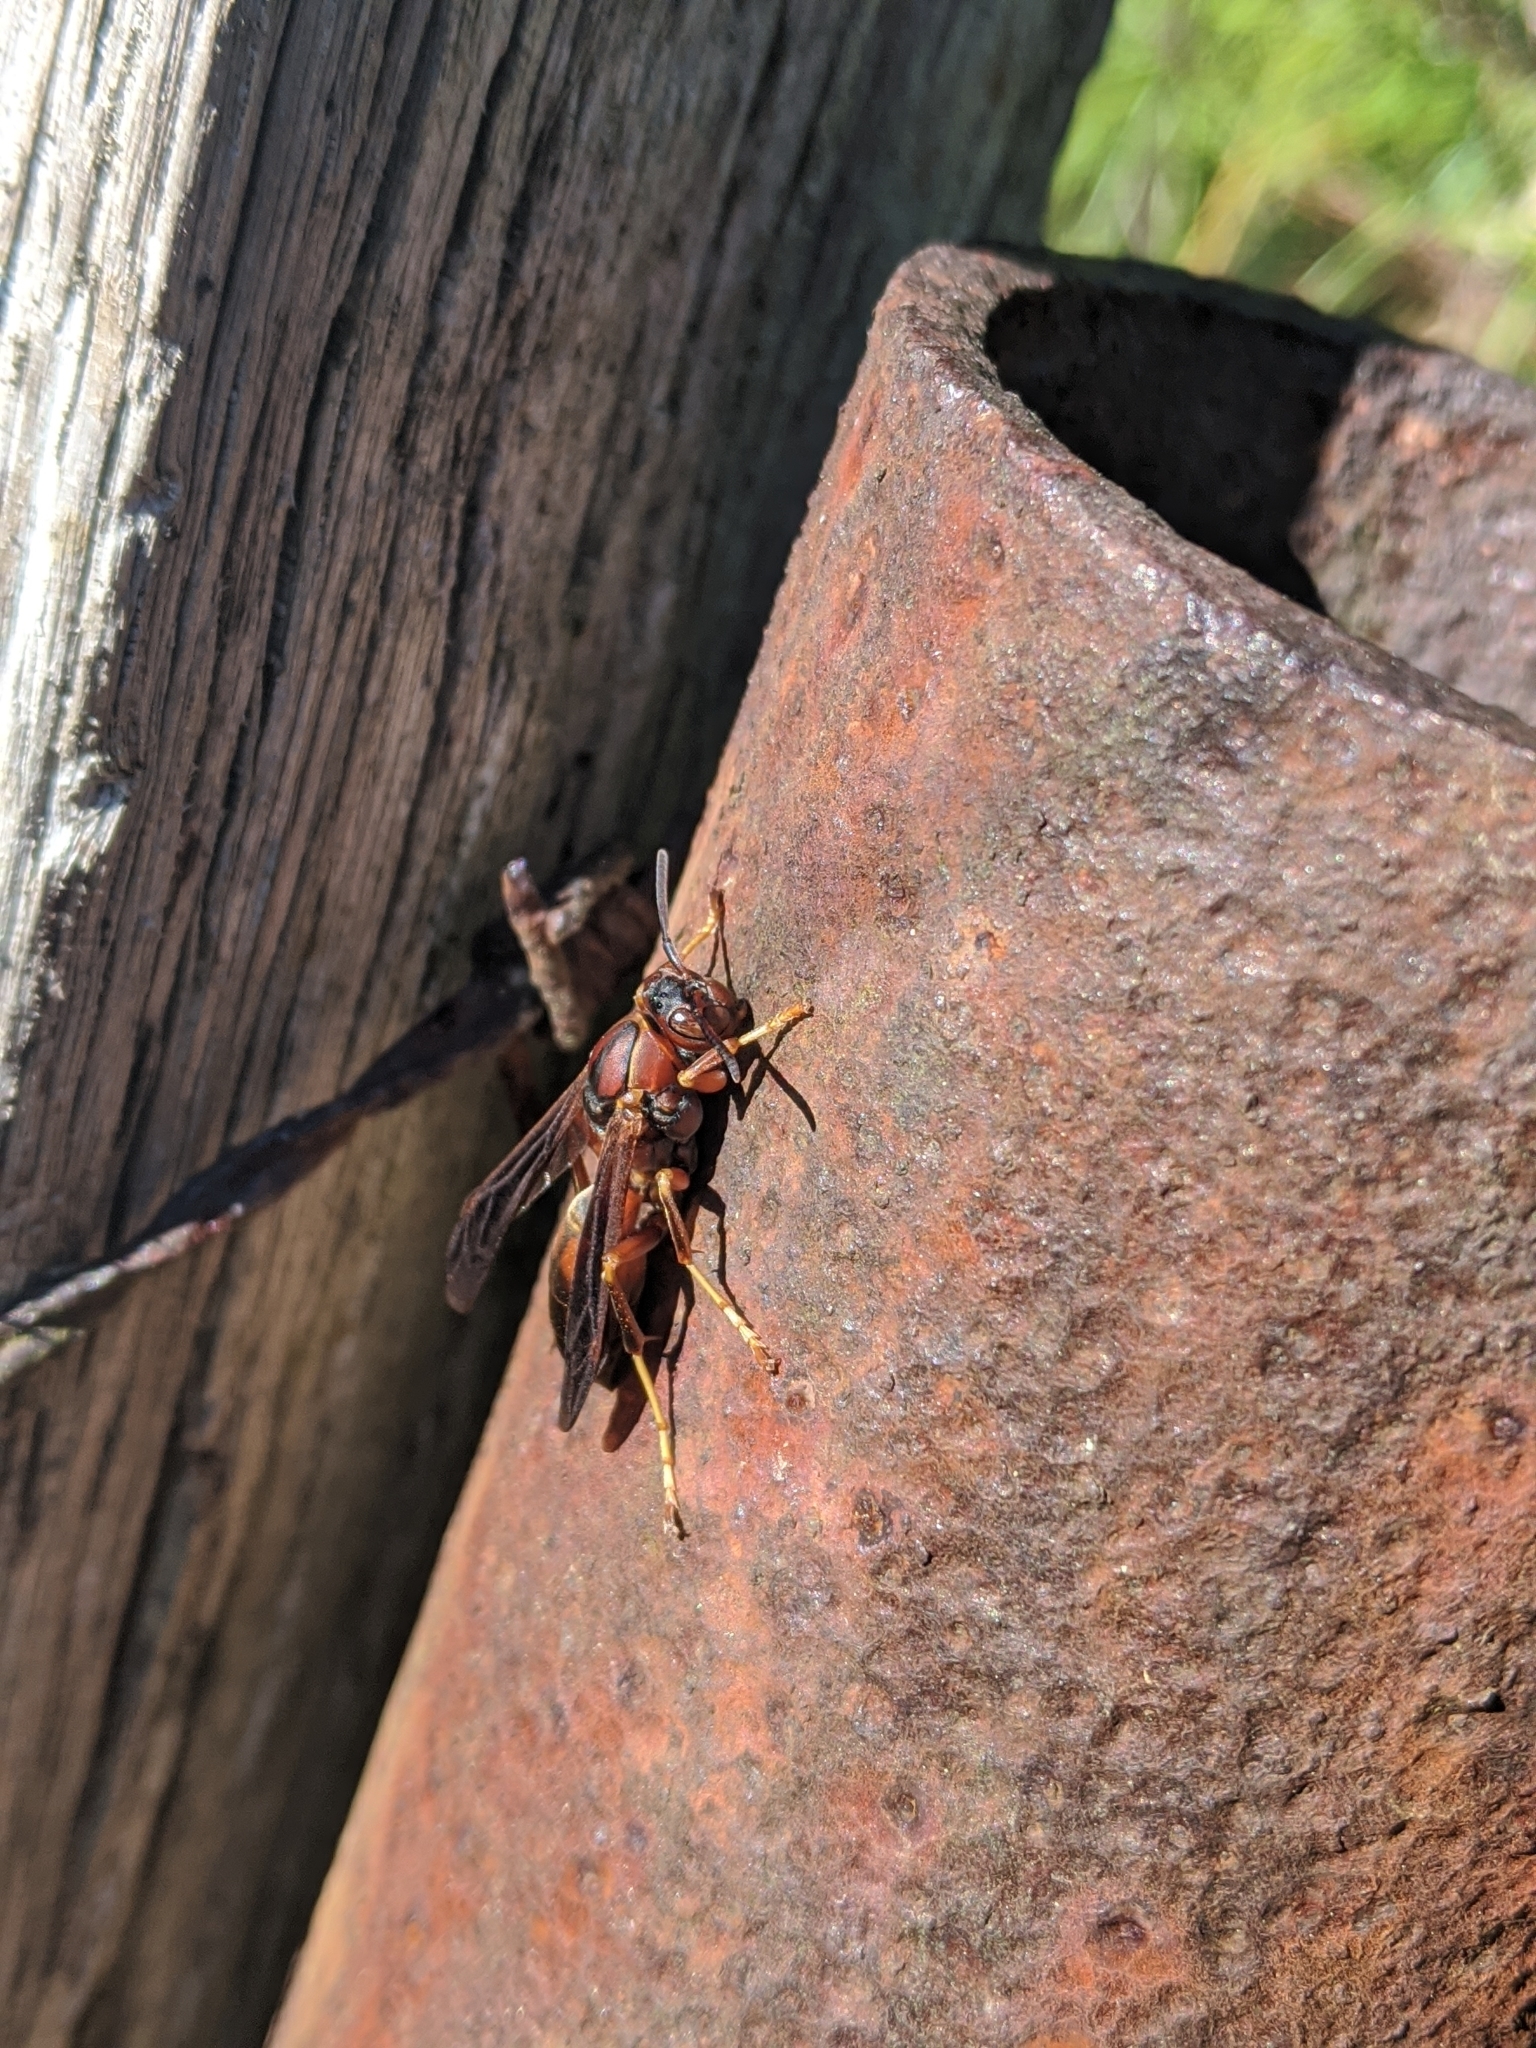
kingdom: Animalia
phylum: Arthropoda
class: Insecta
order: Hymenoptera
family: Eumenidae
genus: Polistes
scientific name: Polistes fuscatus
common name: Dark paper wasp
